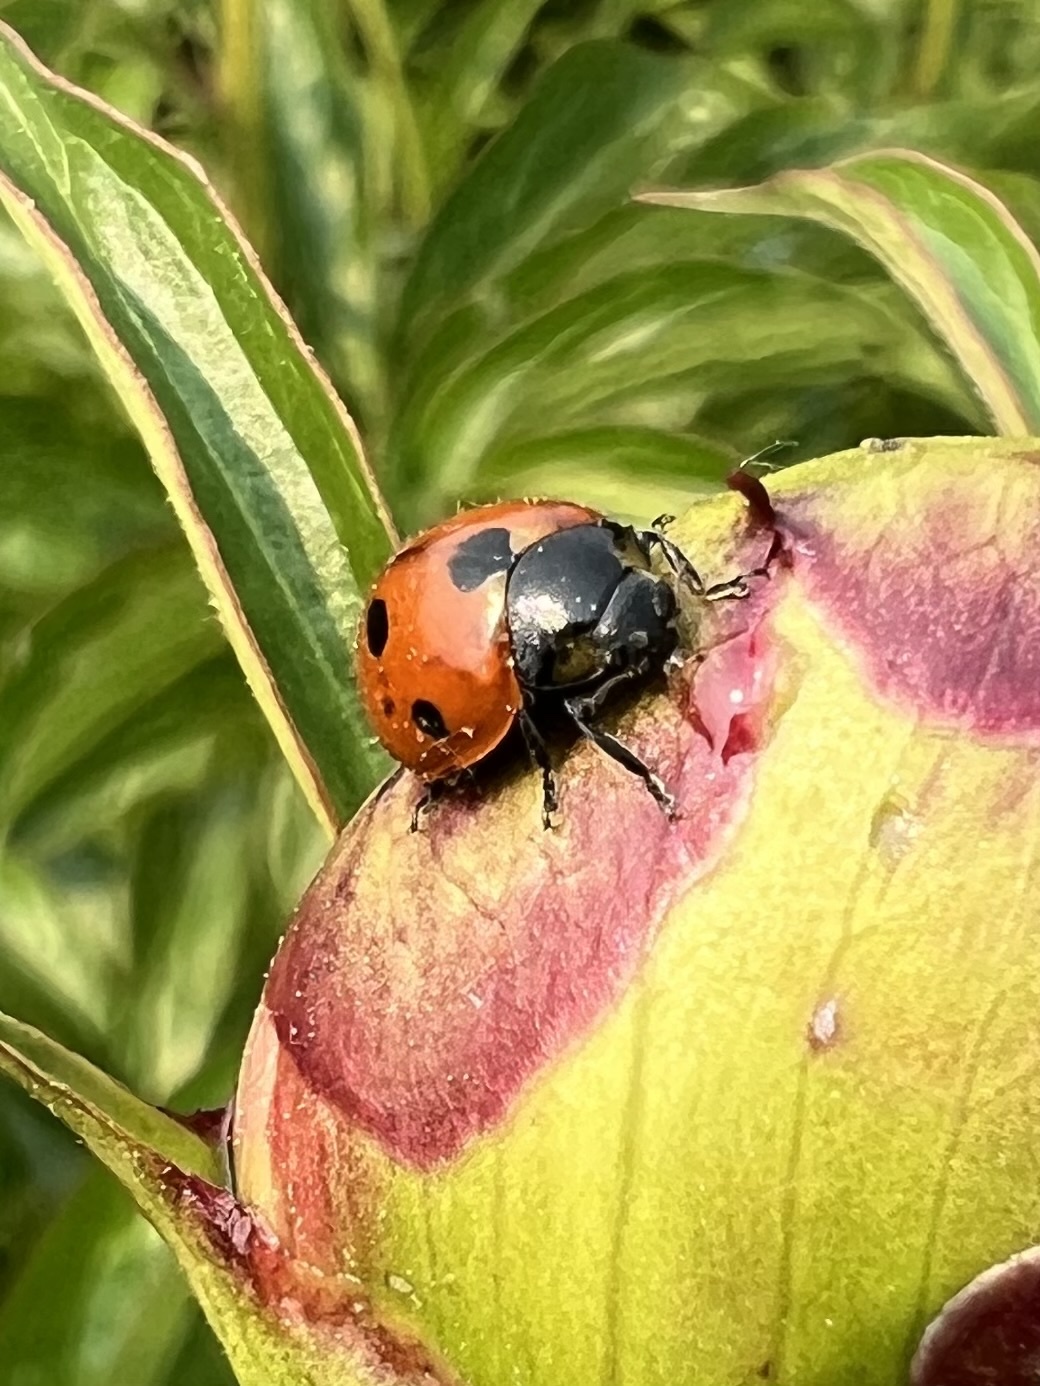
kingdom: Animalia
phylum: Arthropoda
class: Insecta
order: Coleoptera
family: Coccinellidae
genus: Coccinella
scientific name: Coccinella septempunctata
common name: Sevenspotted lady beetle
